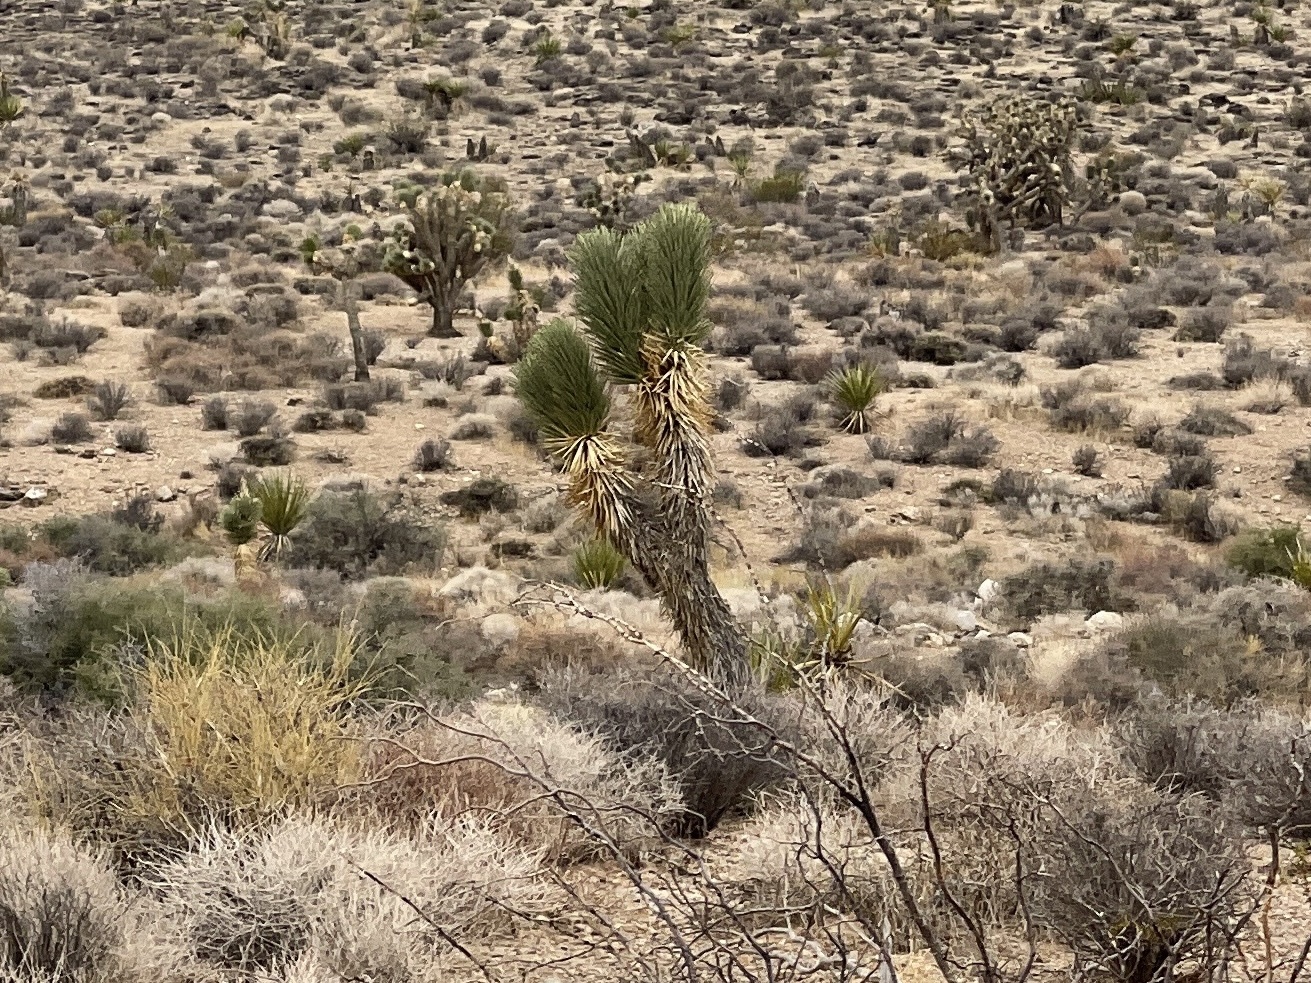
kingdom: Plantae
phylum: Tracheophyta
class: Liliopsida
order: Asparagales
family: Asparagaceae
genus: Yucca
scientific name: Yucca brevifolia
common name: Joshua tree
